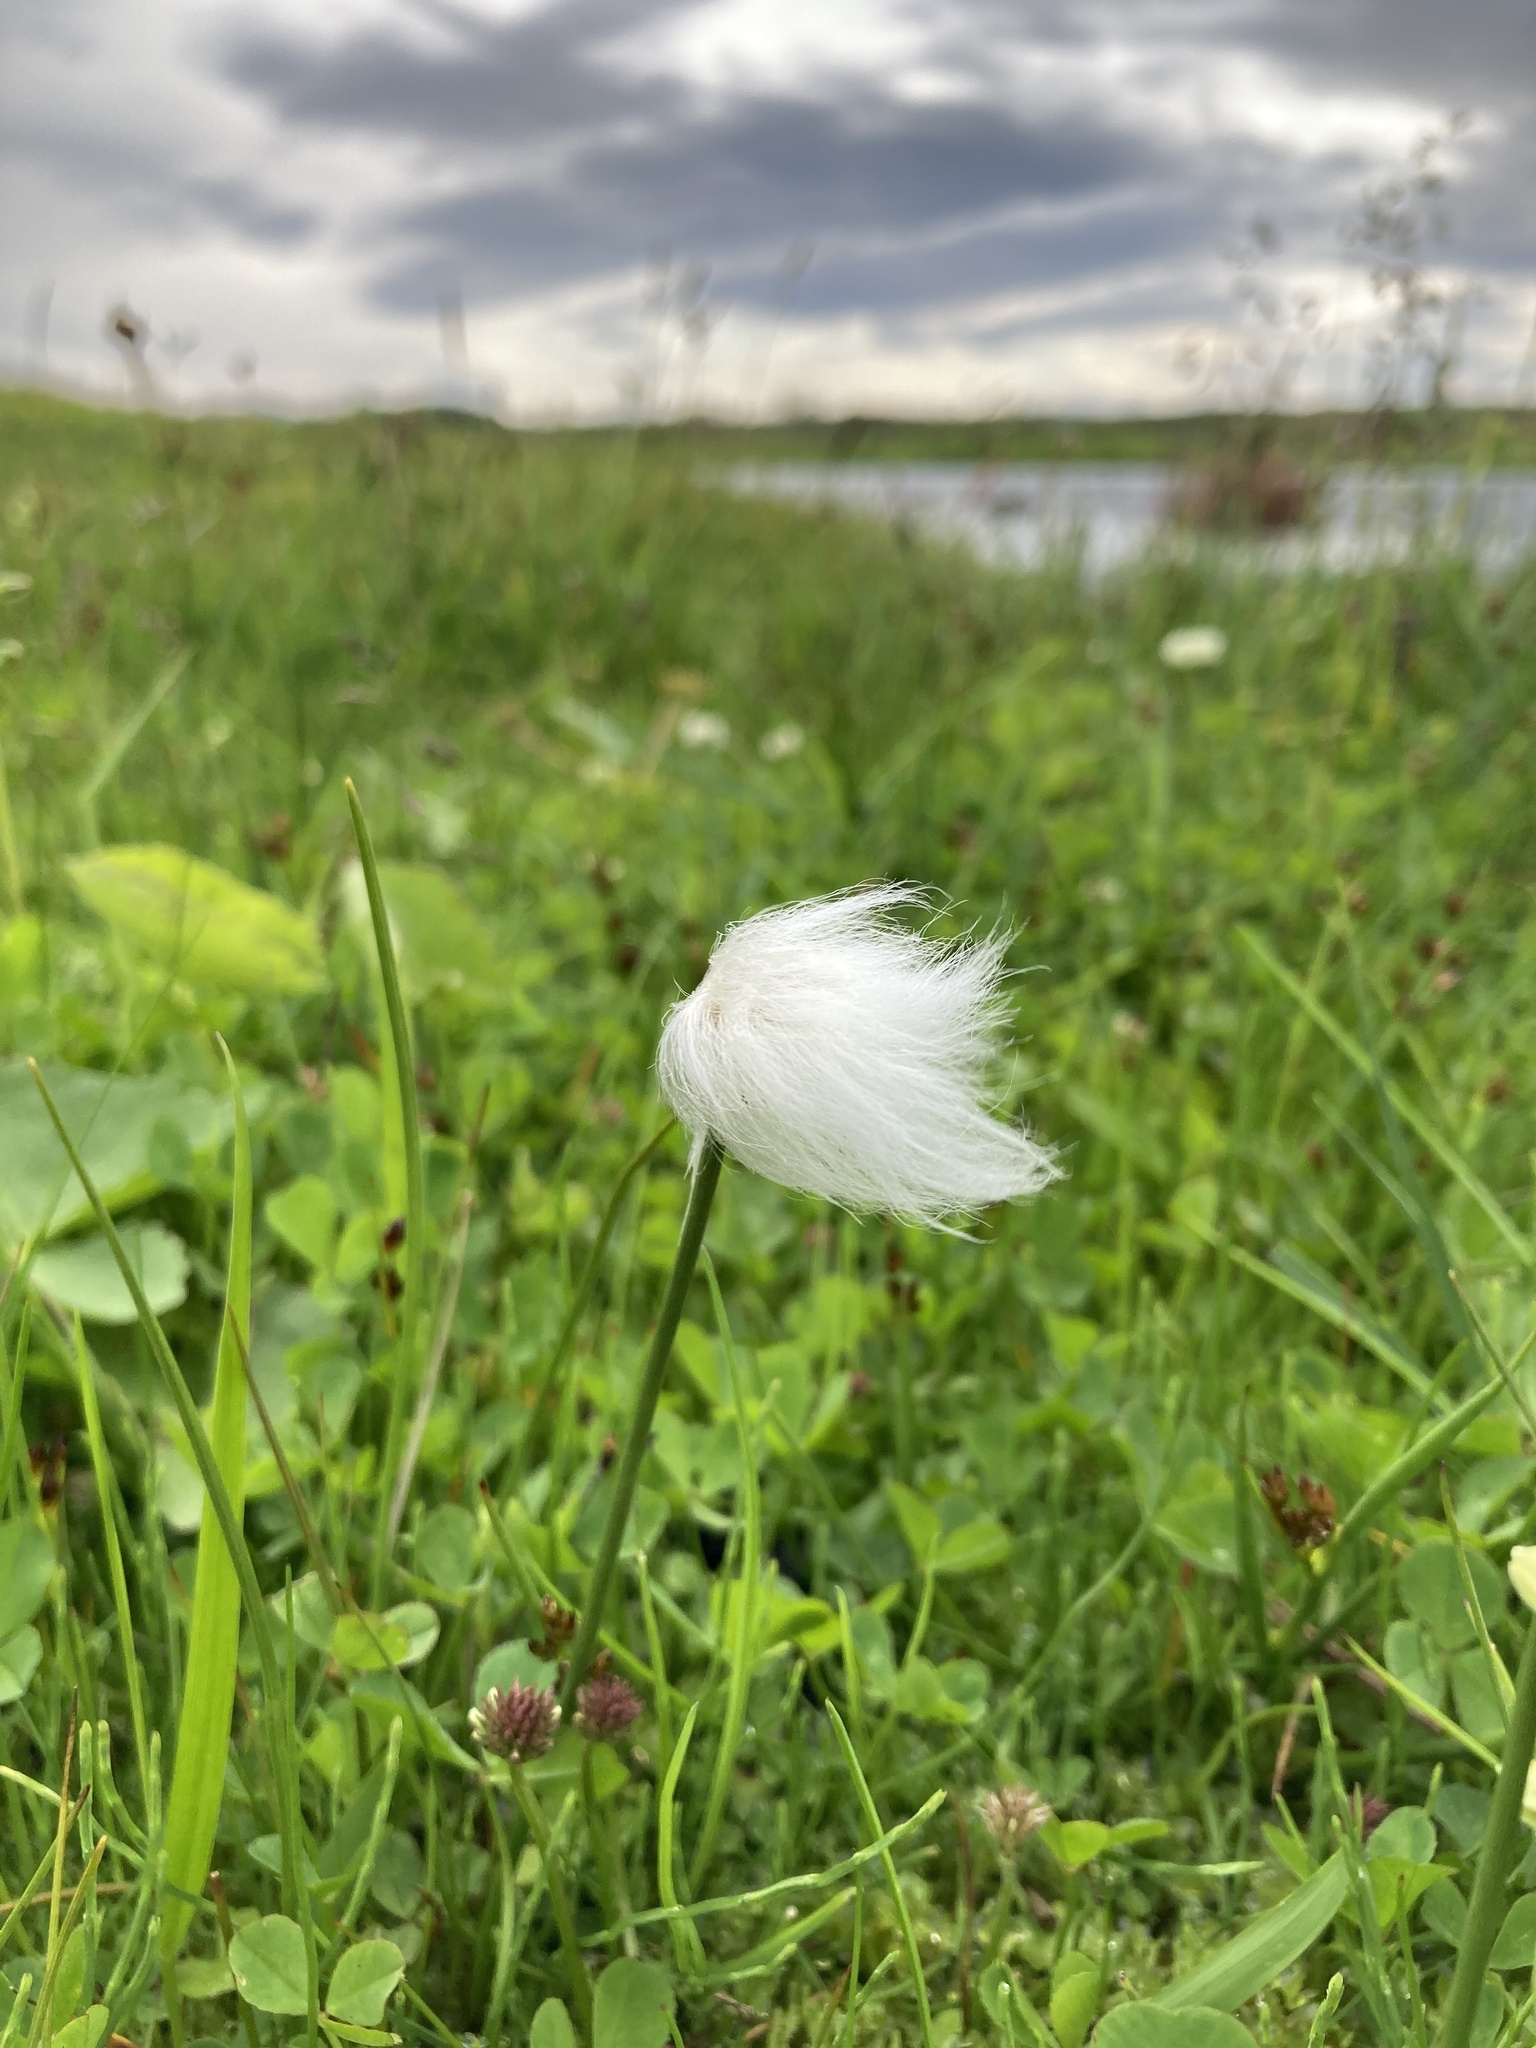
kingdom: Plantae
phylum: Tracheophyta
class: Liliopsida
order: Poales
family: Cyperaceae
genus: Eriophorum
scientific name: Eriophorum scheuchzeri
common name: Scheuchzer's cottongrass
